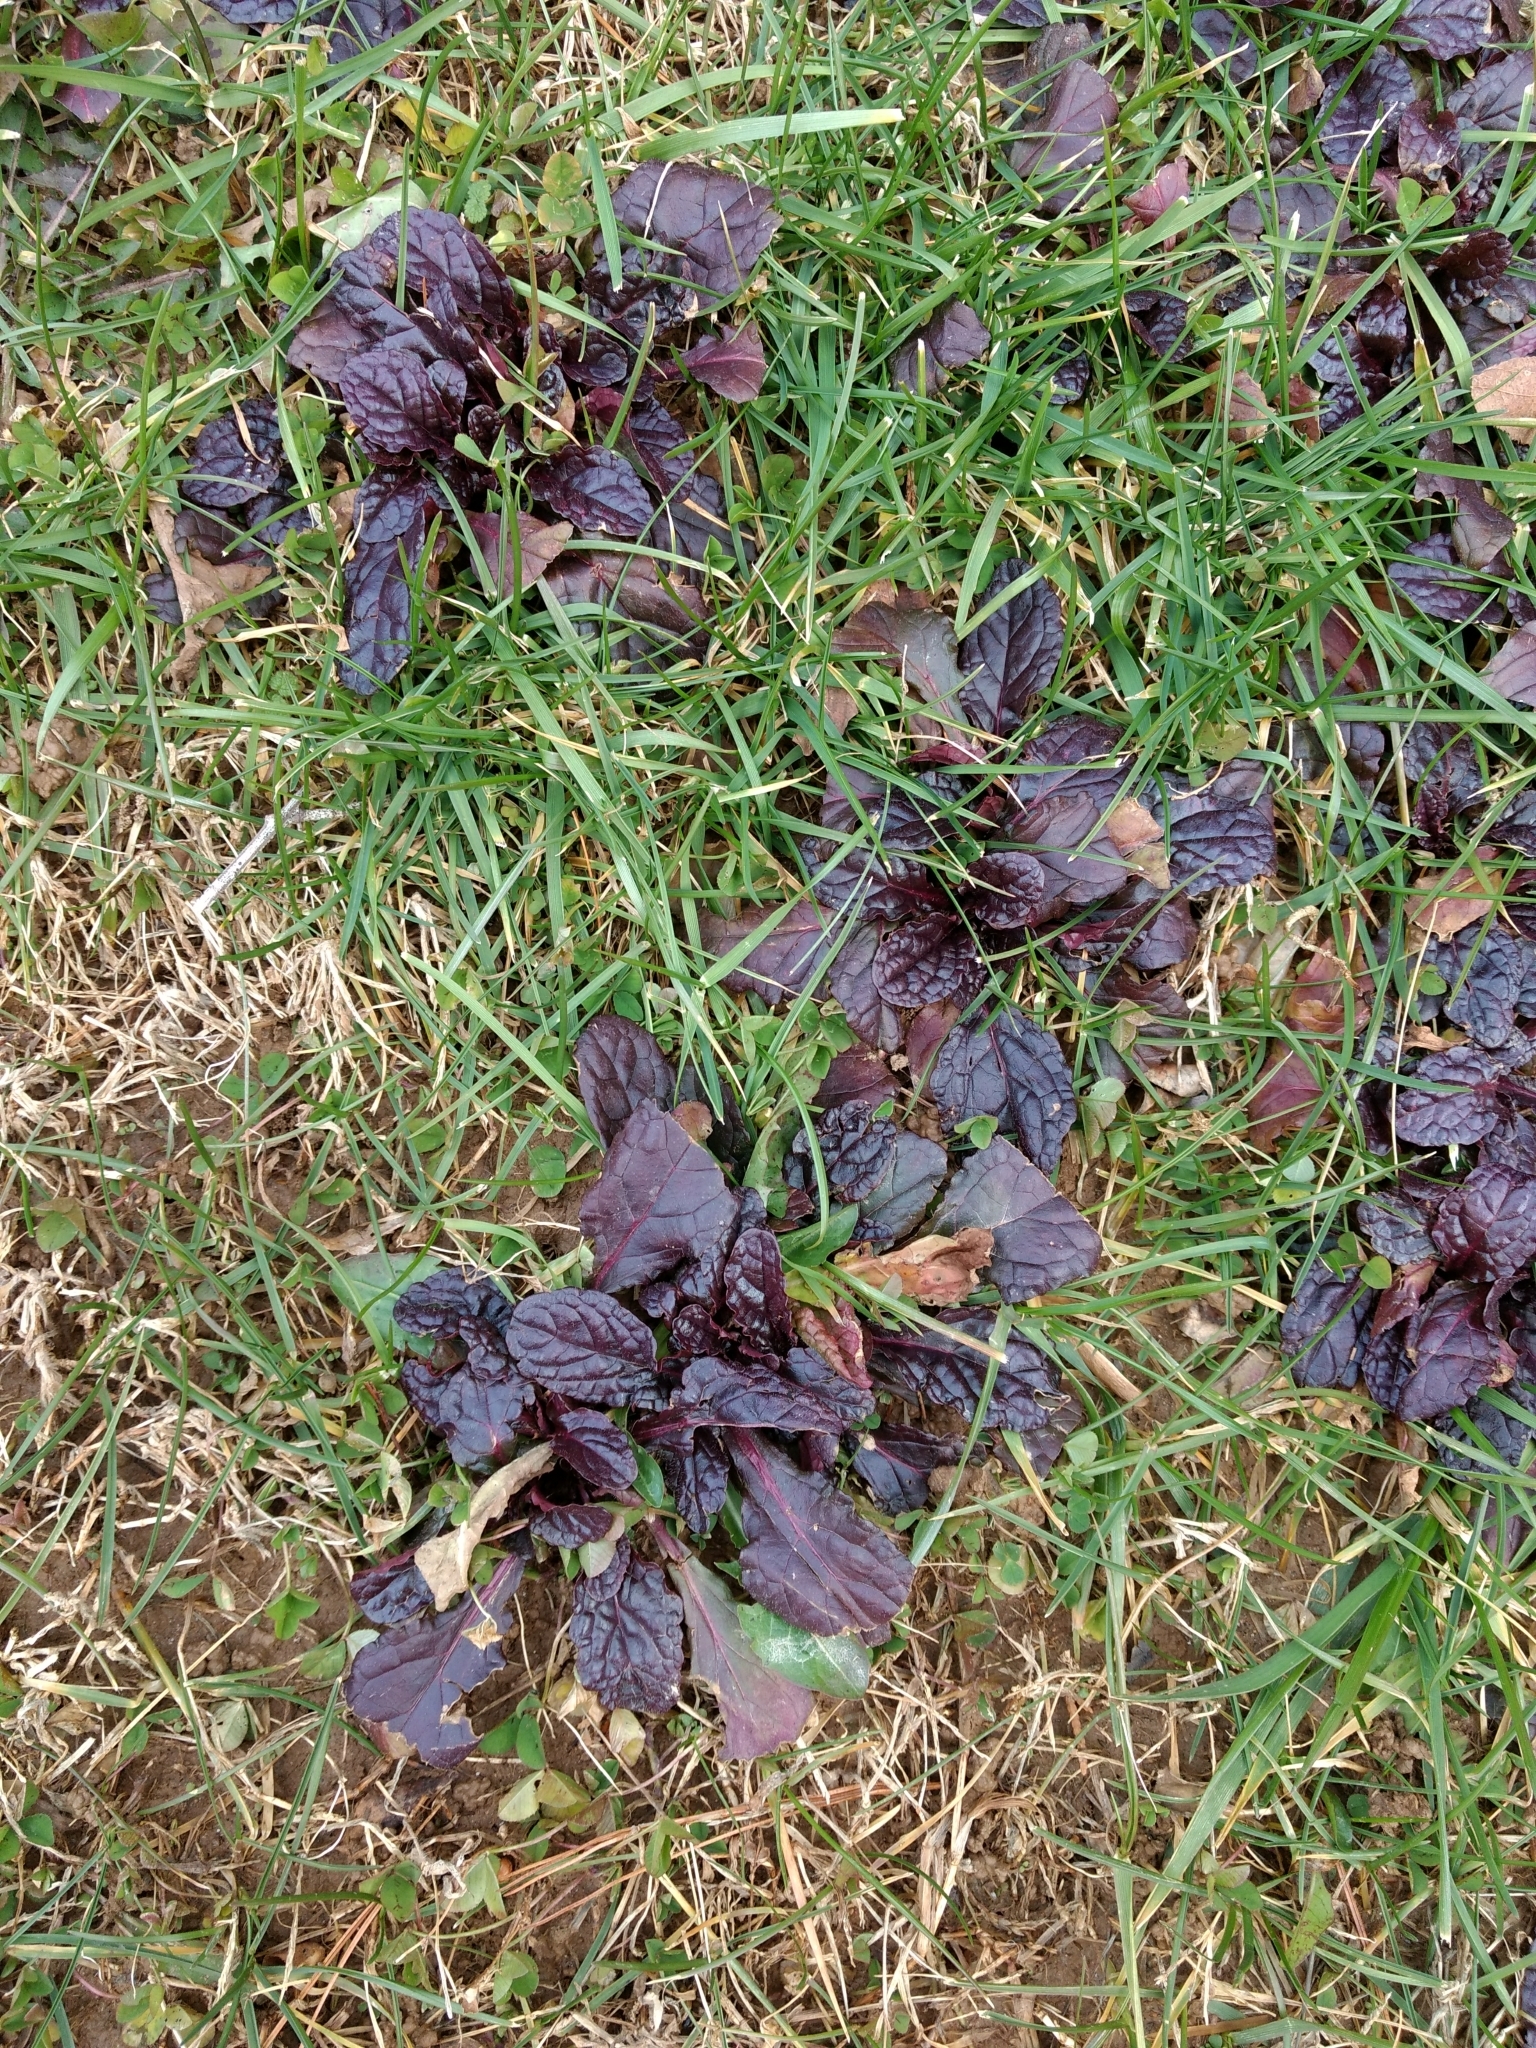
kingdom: Plantae
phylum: Tracheophyta
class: Magnoliopsida
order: Lamiales
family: Lamiaceae
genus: Ajuga
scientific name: Ajuga reptans
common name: Bugle
